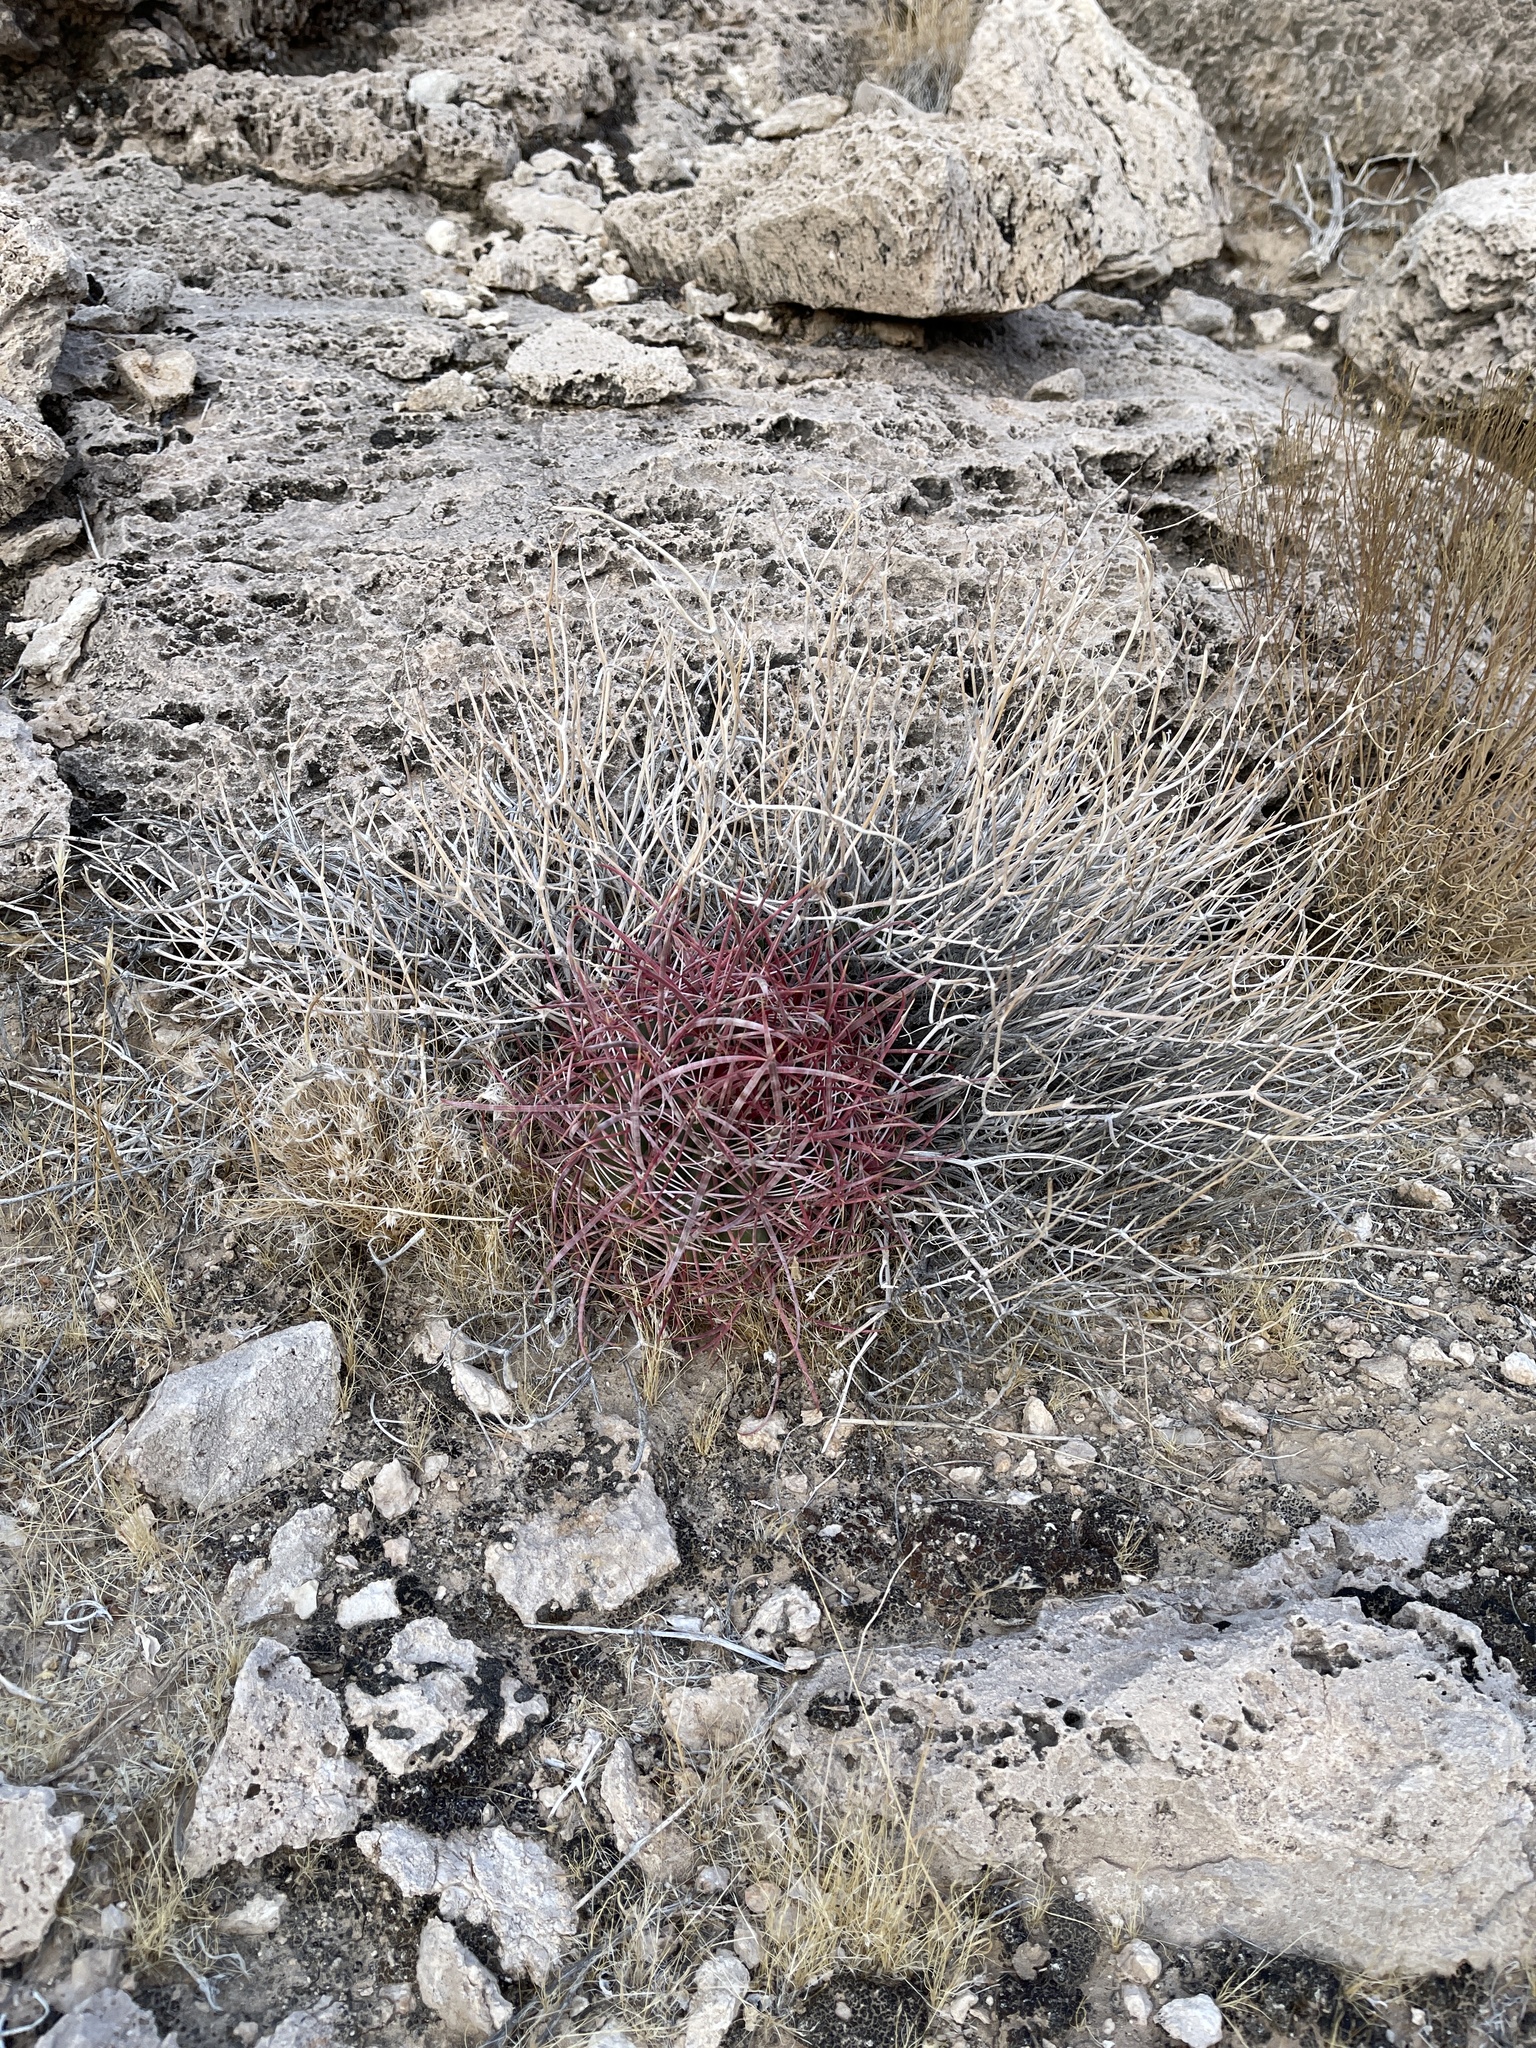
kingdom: Plantae
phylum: Tracheophyta
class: Magnoliopsida
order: Caryophyllales
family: Cactaceae
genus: Ferocactus
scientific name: Ferocactus cylindraceus
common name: California barrel cactus
